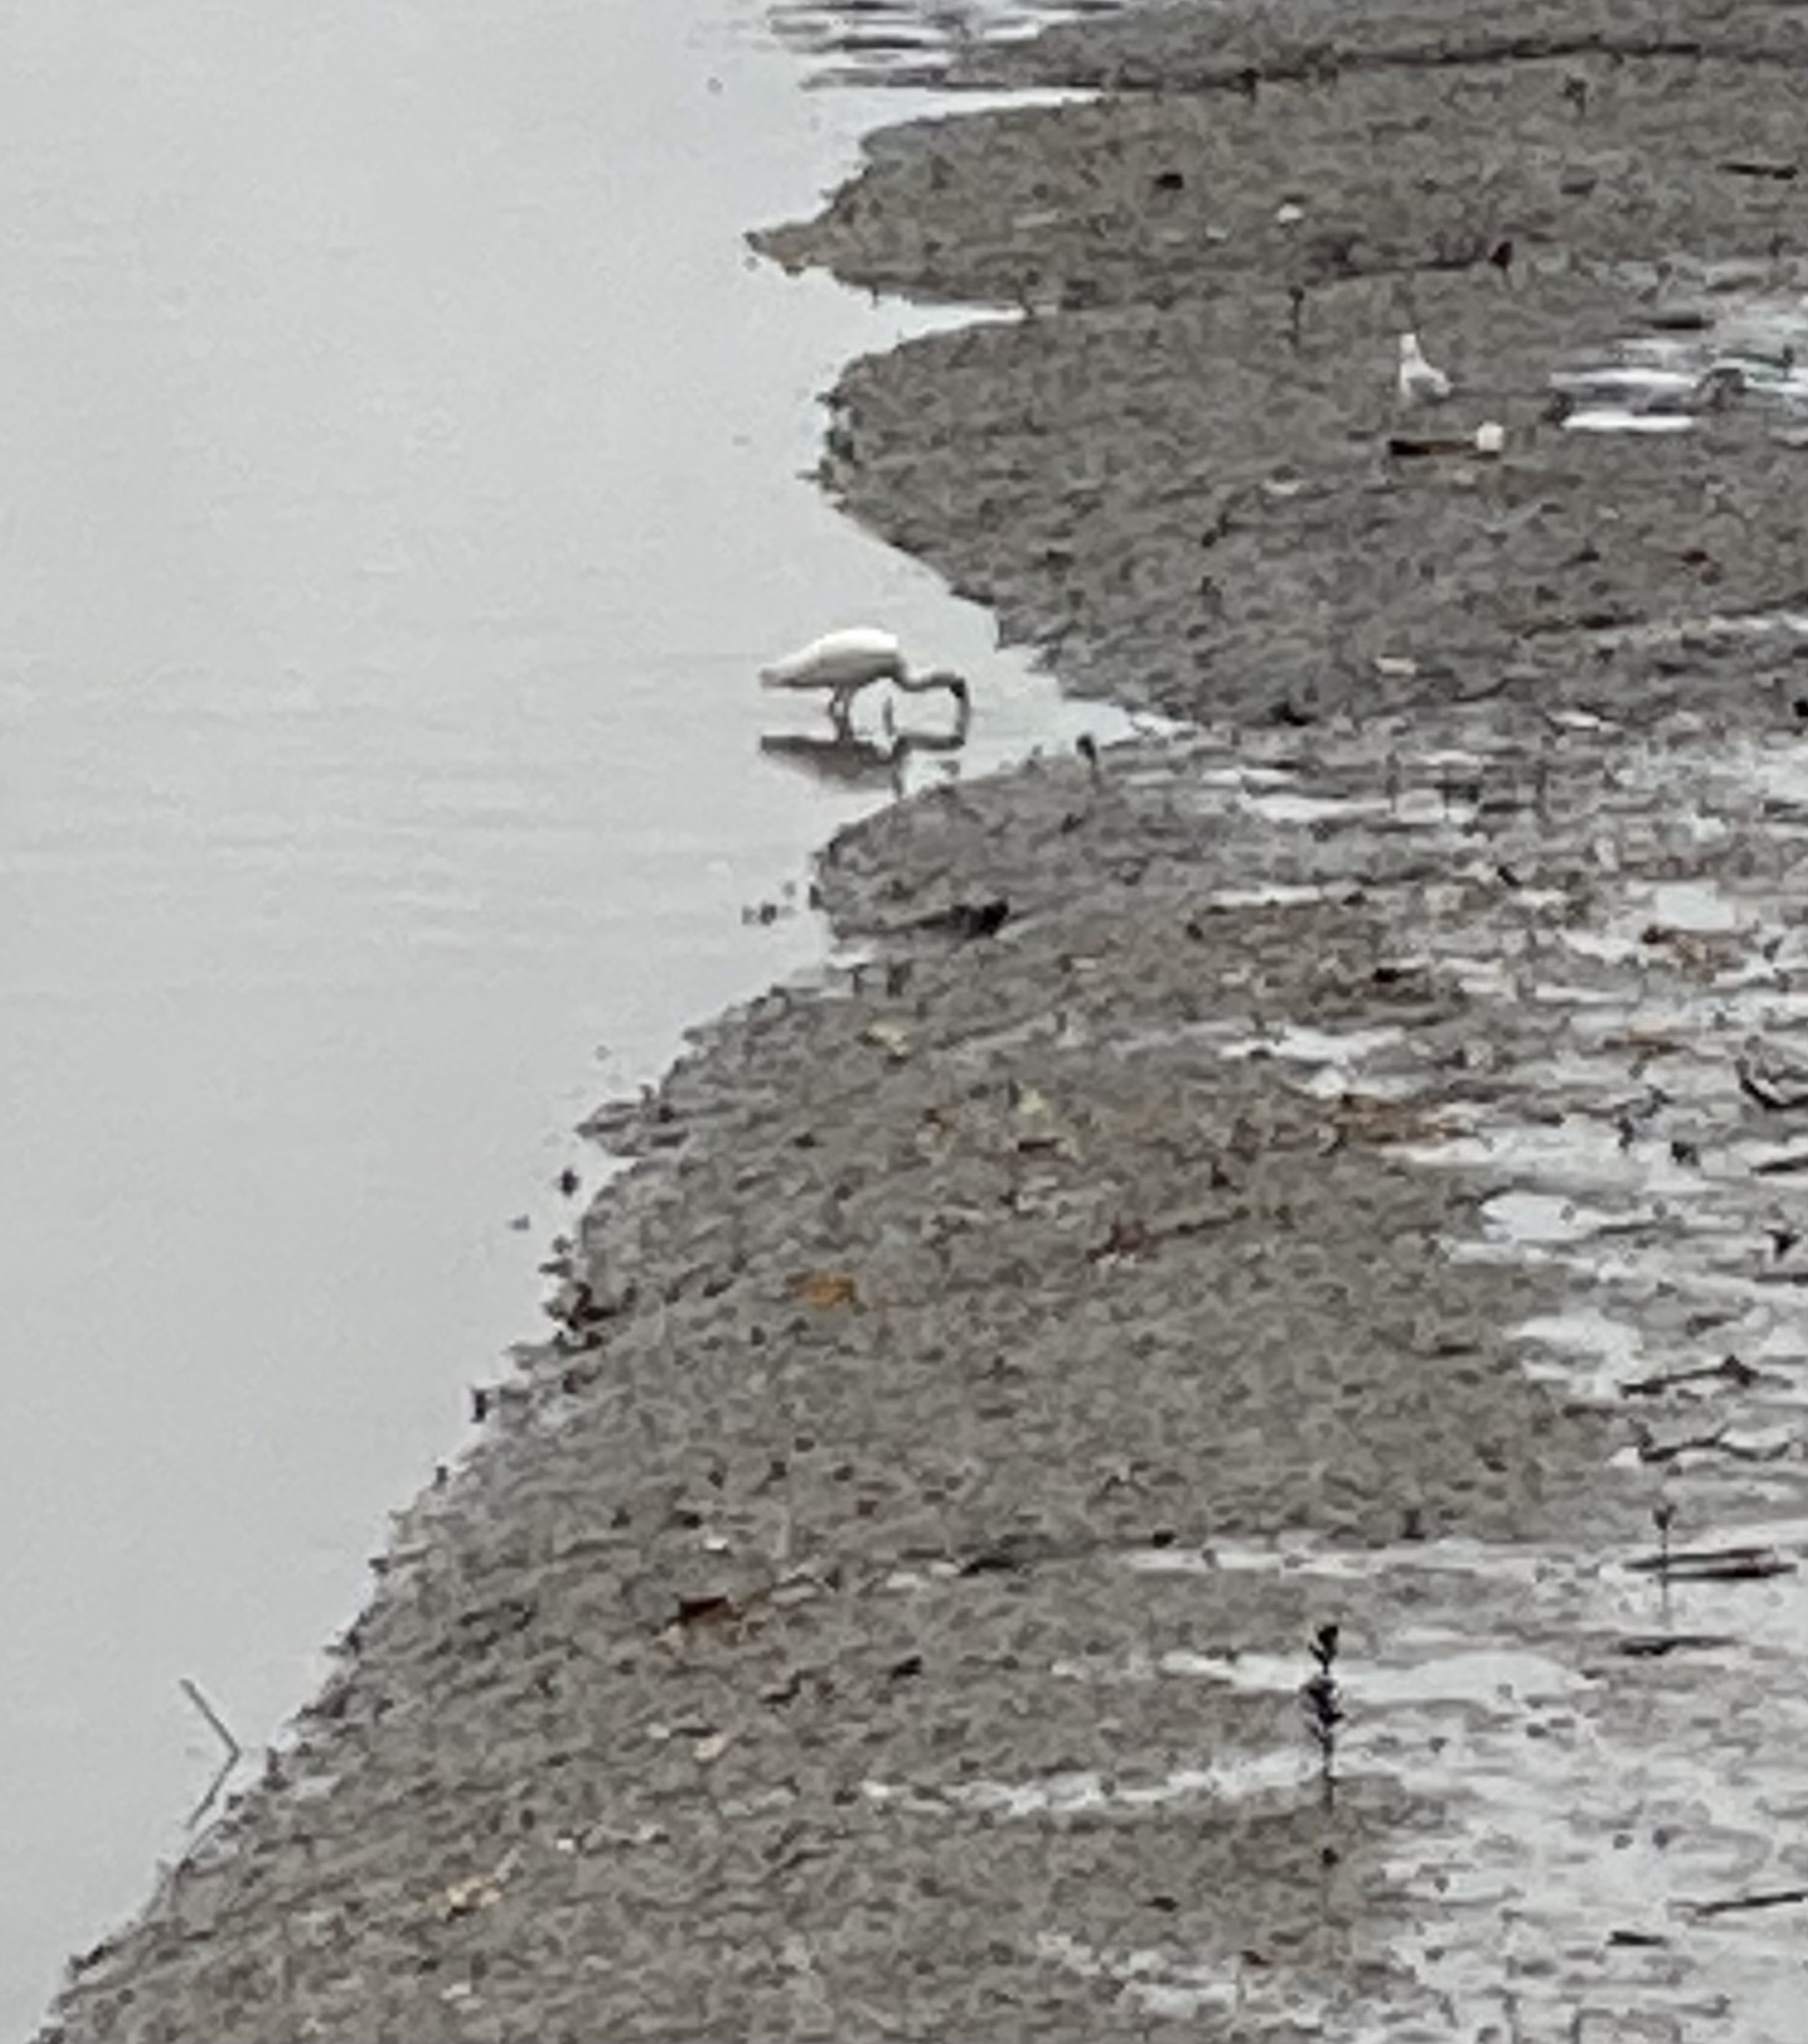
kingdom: Animalia
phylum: Chordata
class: Aves
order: Pelecaniformes
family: Threskiornithidae
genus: Platalea
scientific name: Platalea regia
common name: Royal spoonbill
